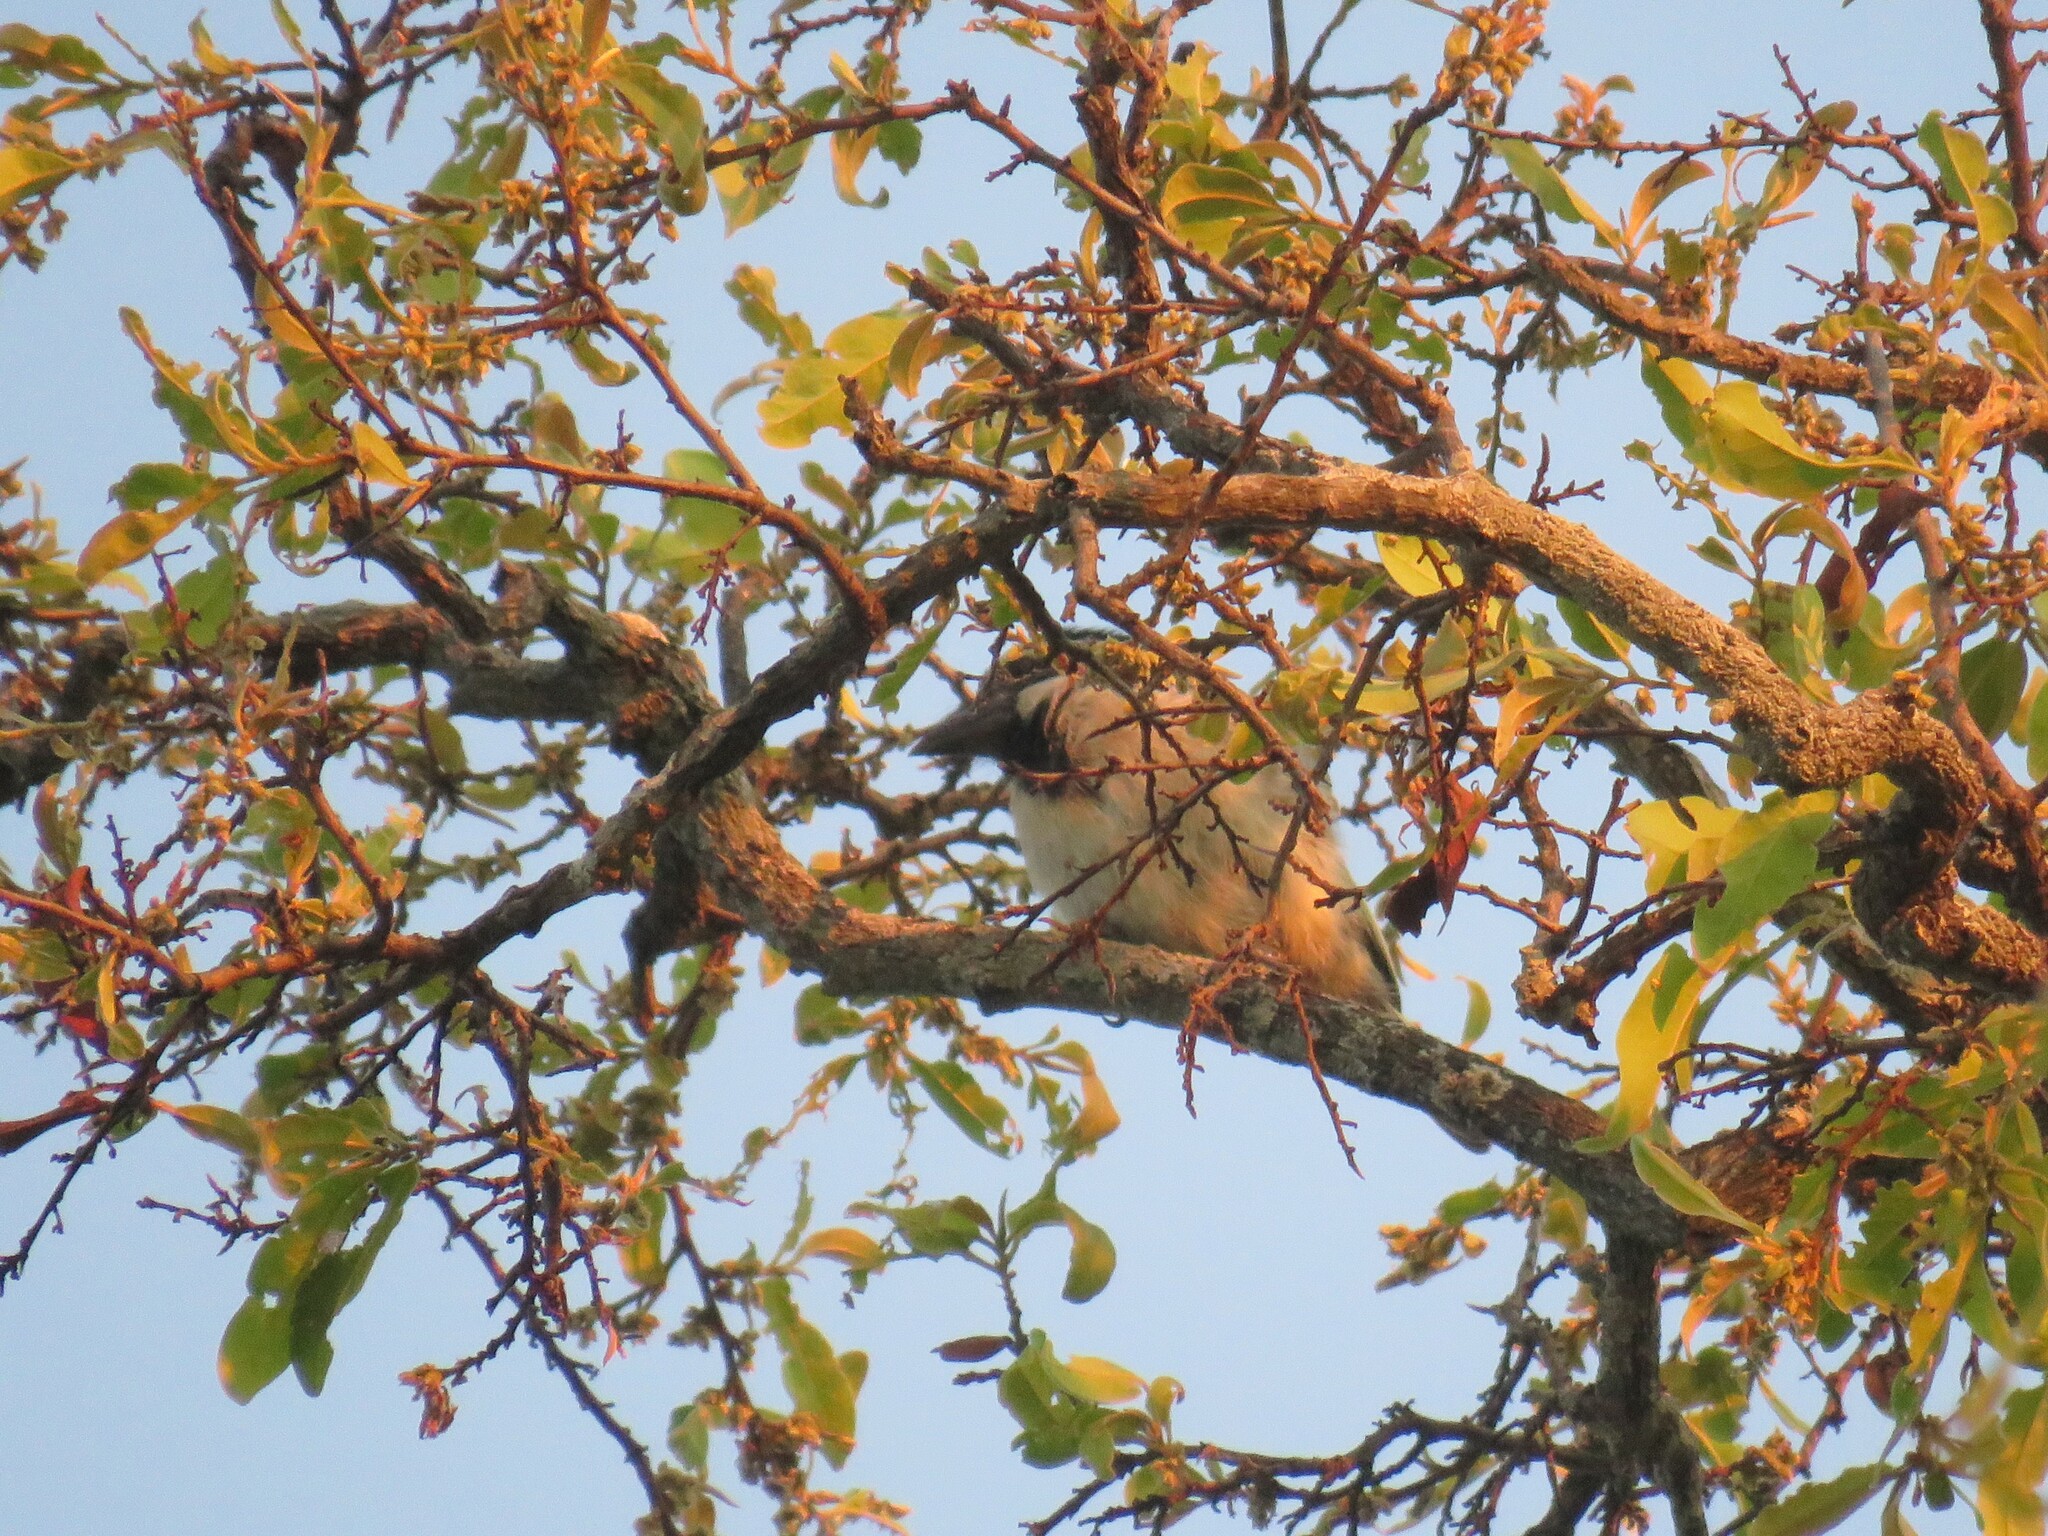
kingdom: Animalia
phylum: Chordata
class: Aves
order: Piciformes
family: Lybiidae
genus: Tricholaema
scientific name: Tricholaema leucomelas
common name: Acacia pied barbet
